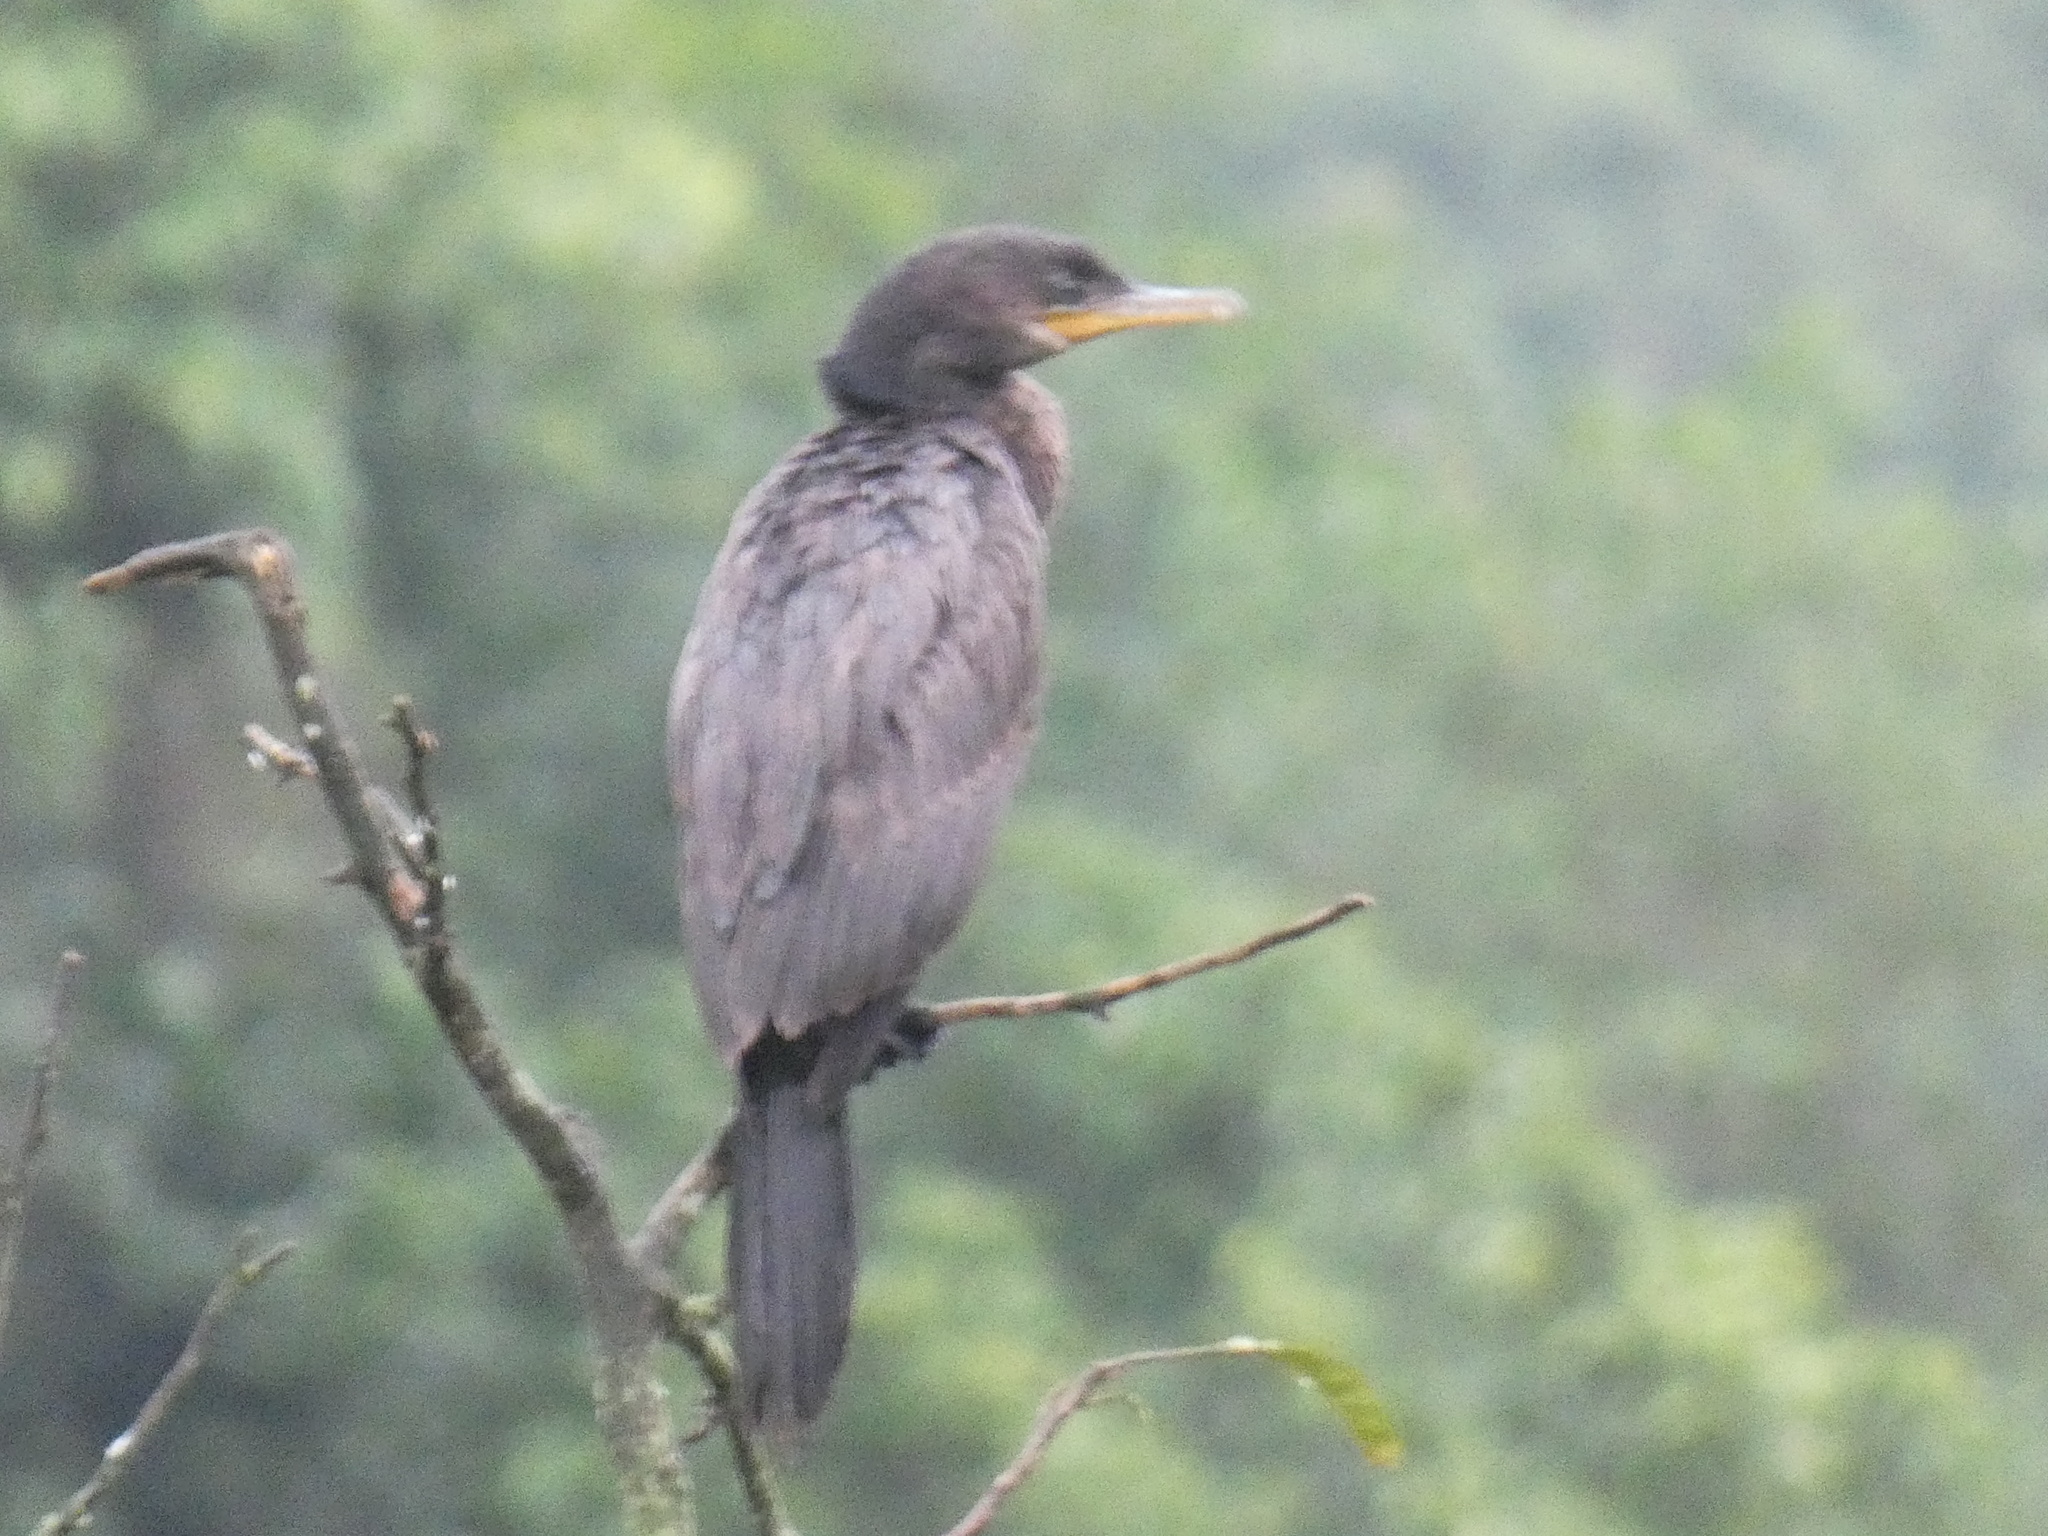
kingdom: Animalia
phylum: Chordata
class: Aves
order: Suliformes
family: Phalacrocoracidae
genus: Phalacrocorax
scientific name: Phalacrocorax brasilianus
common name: Neotropic cormorant
